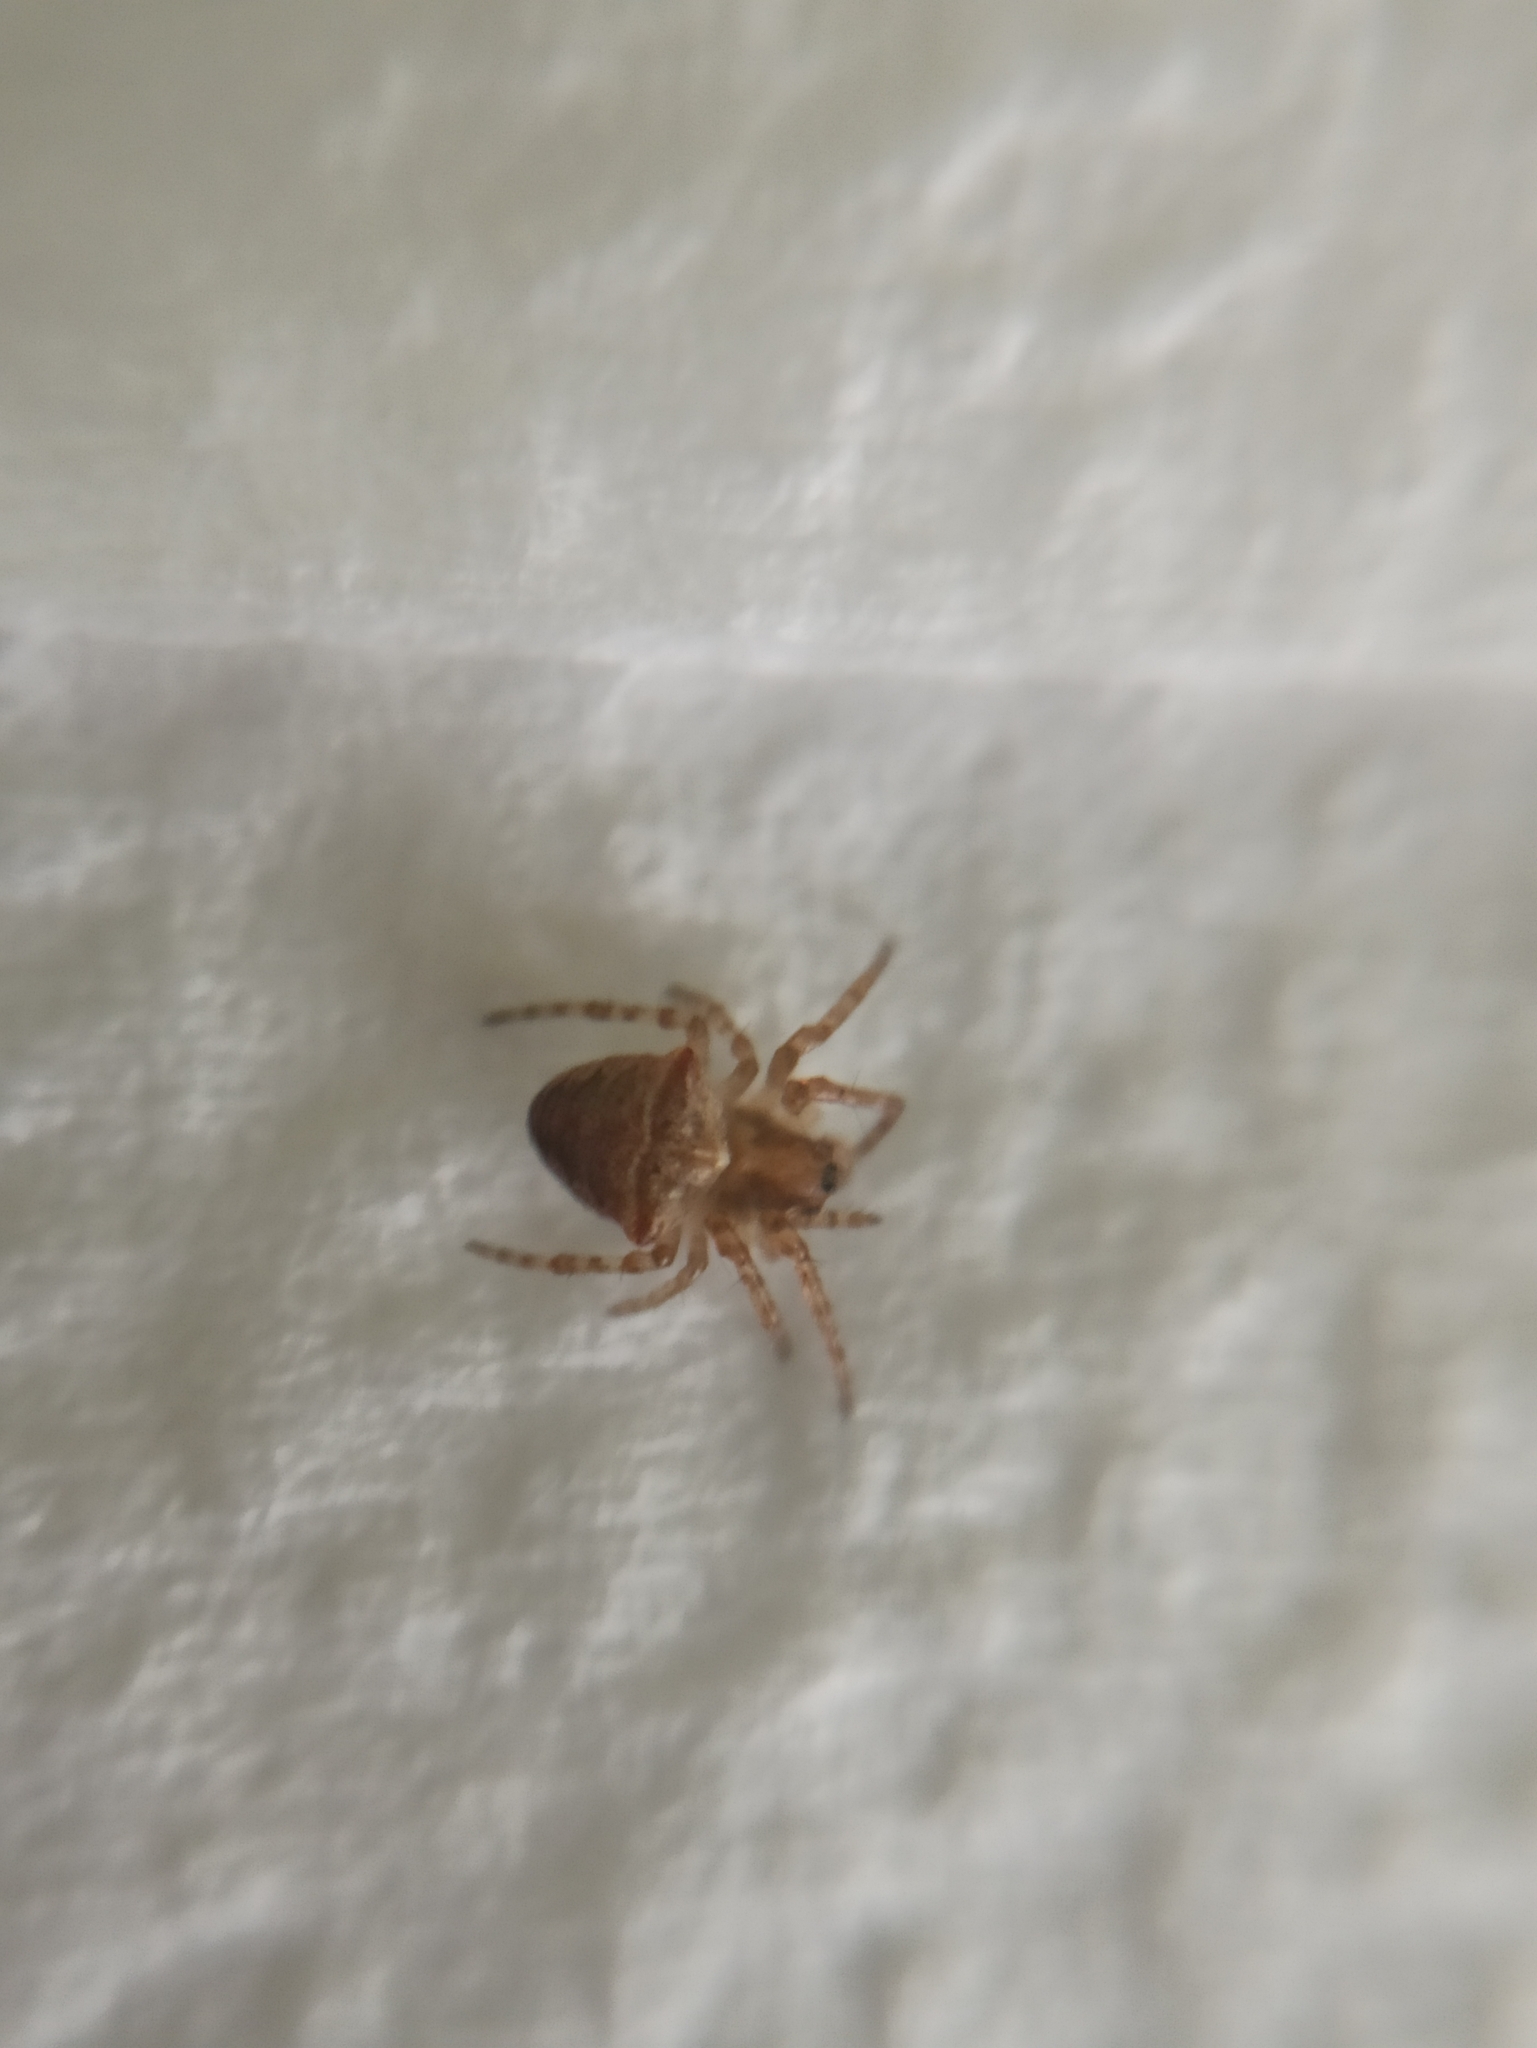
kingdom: Animalia
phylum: Arthropoda
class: Arachnida
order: Araneae
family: Araneidae
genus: Gibbaranea
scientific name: Gibbaranea bituberculata
